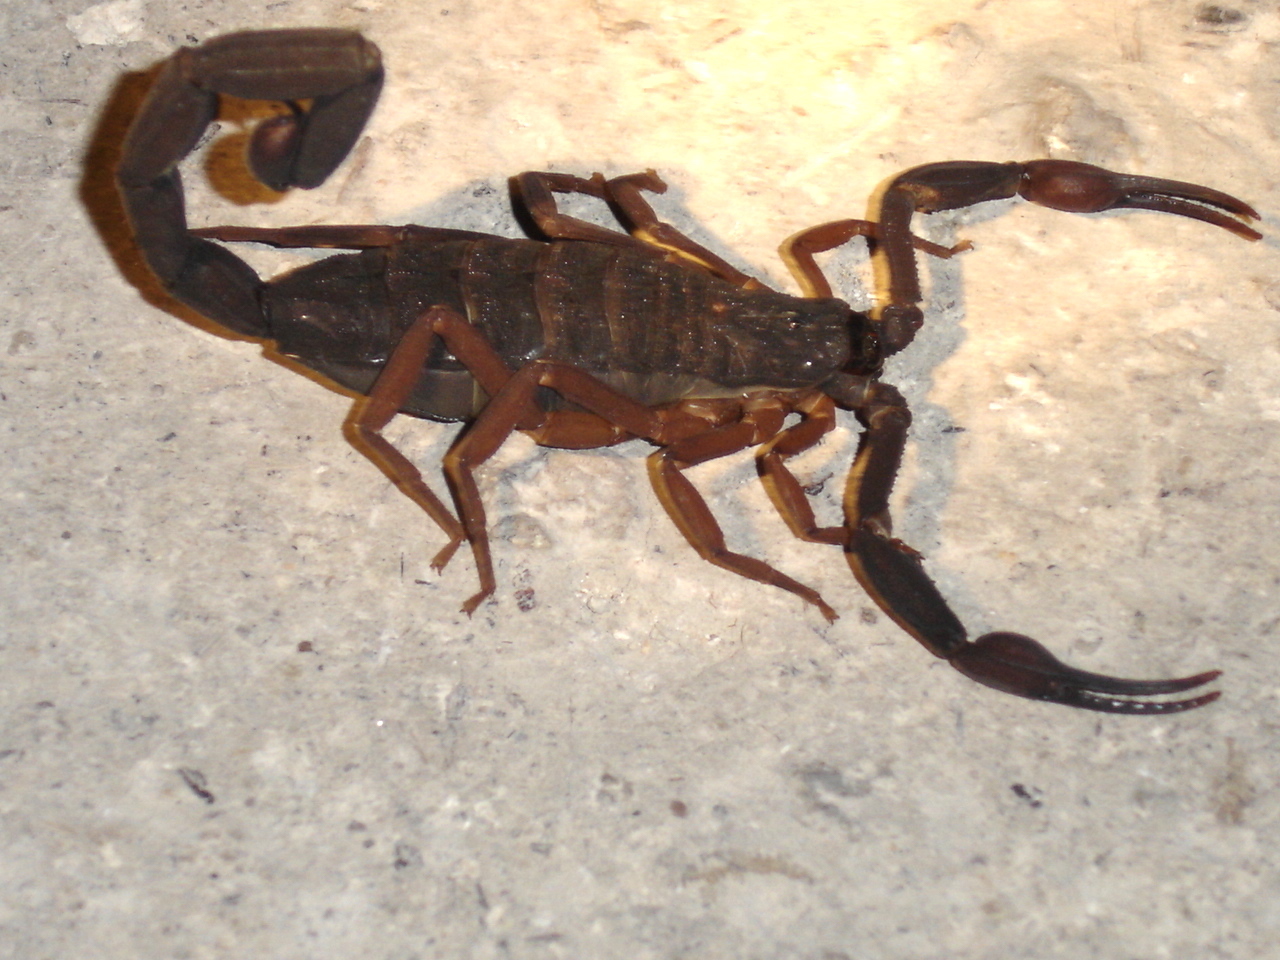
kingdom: Animalia
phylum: Arthropoda
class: Arachnida
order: Scorpiones
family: Buthidae
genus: Centruroides
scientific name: Centruroides gracilis
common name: Scorpions
